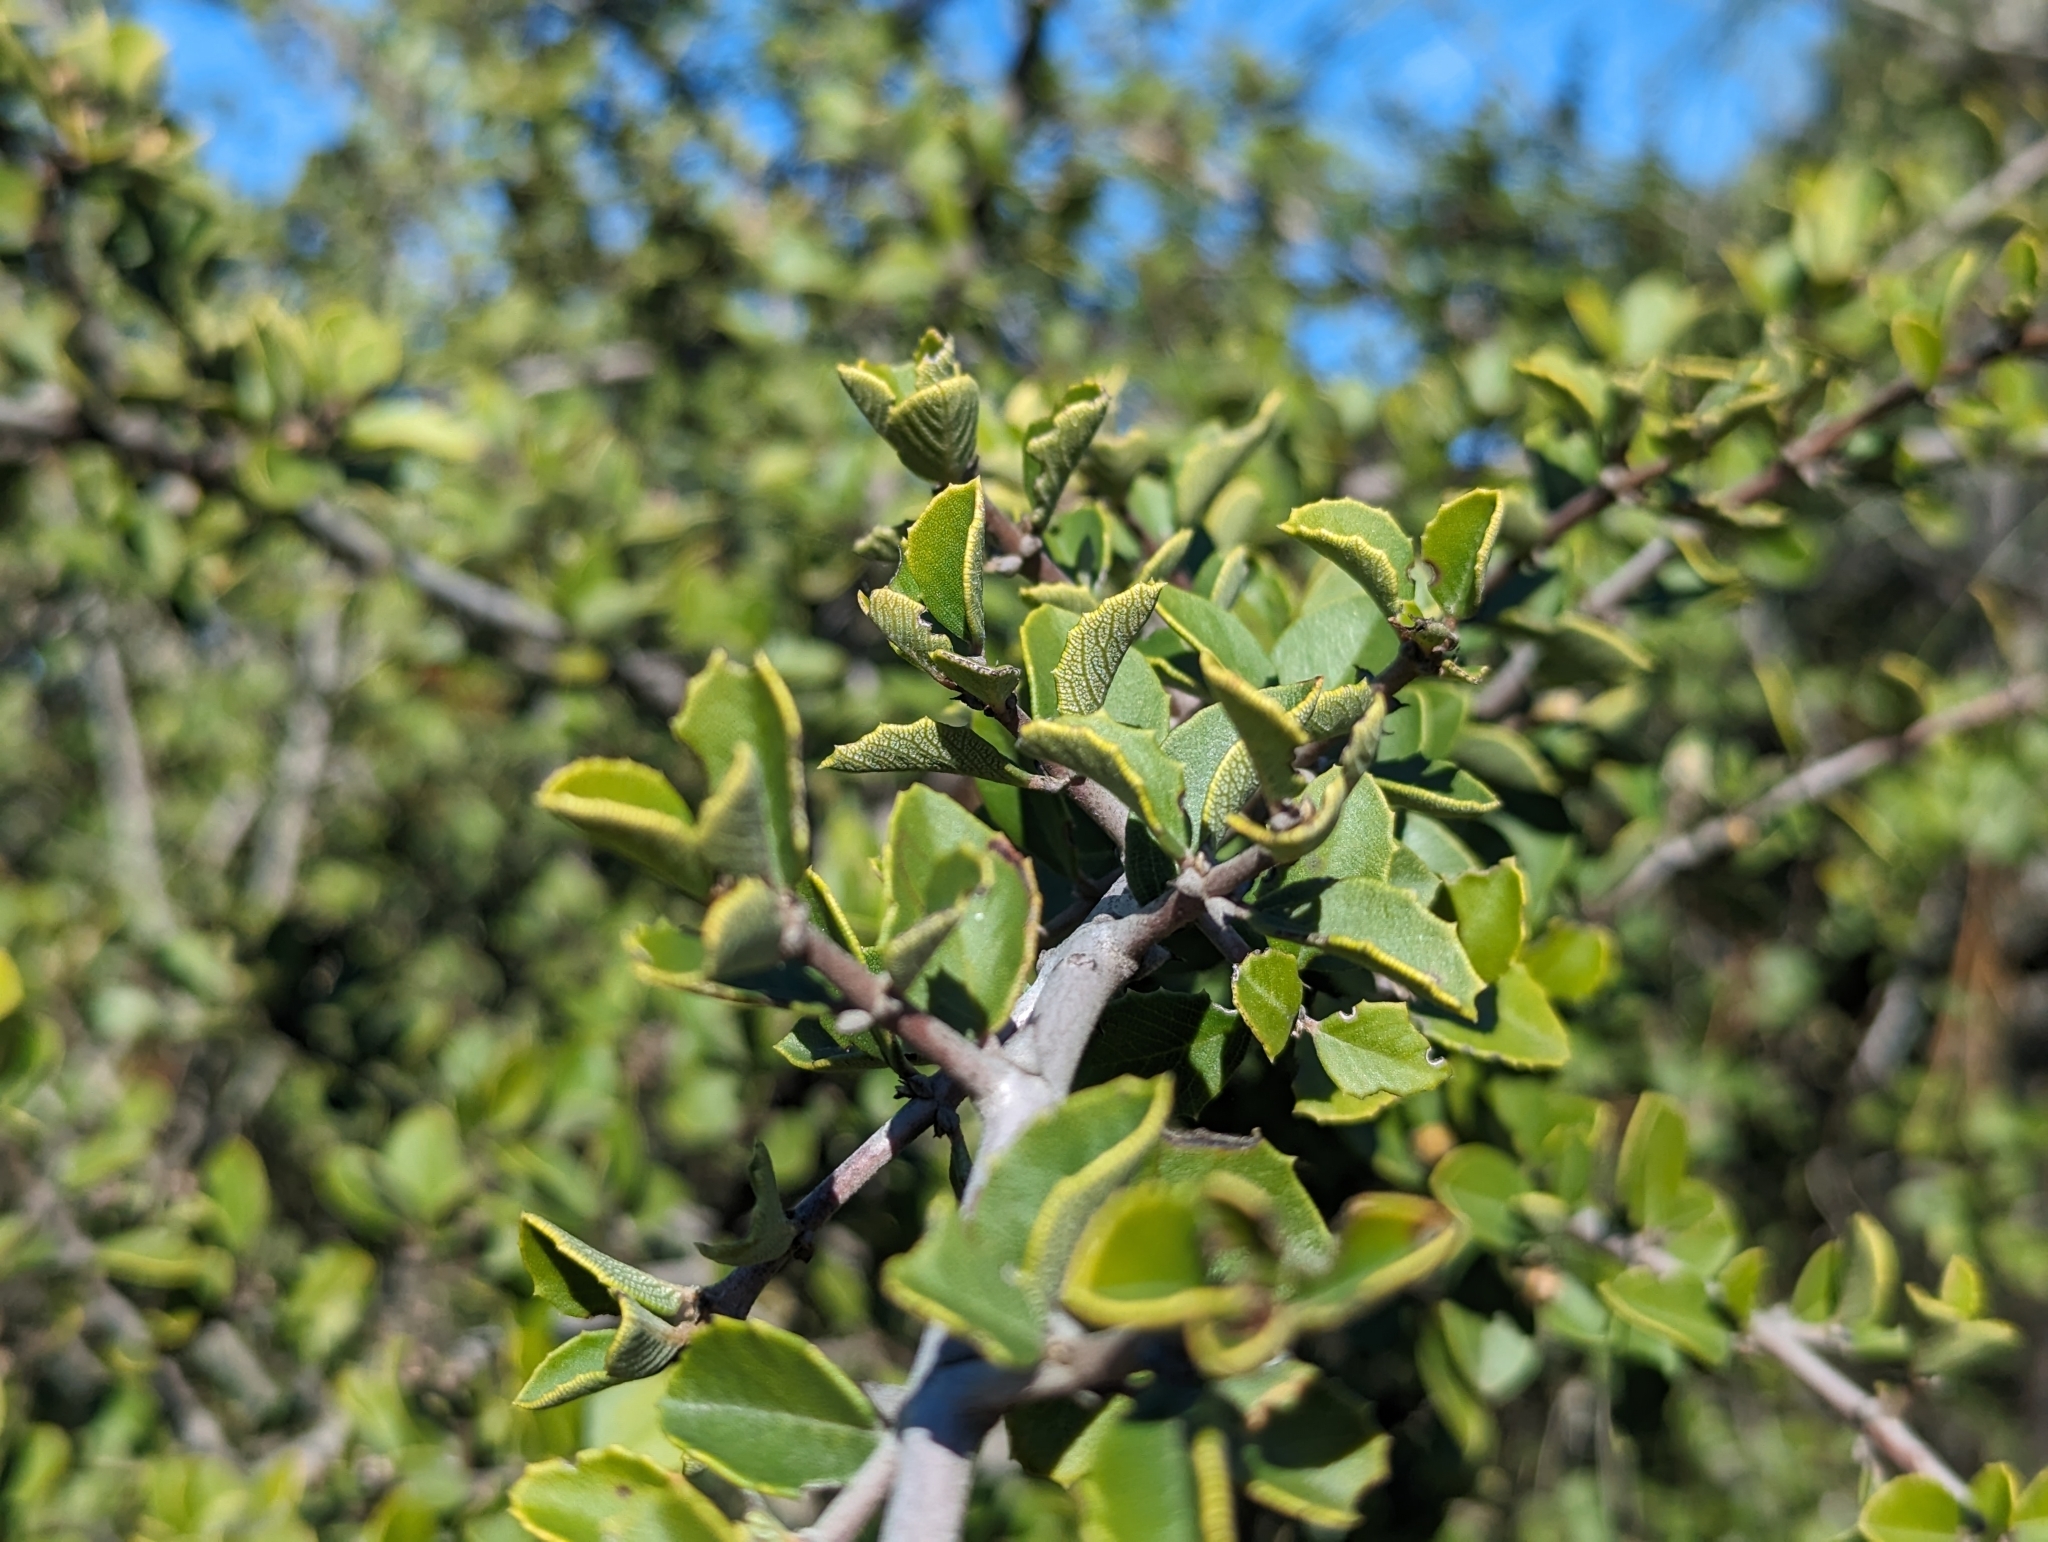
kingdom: Plantae
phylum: Tracheophyta
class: Magnoliopsida
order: Rosales
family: Rhamnaceae
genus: Ceanothus
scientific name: Ceanothus ferrisiae
